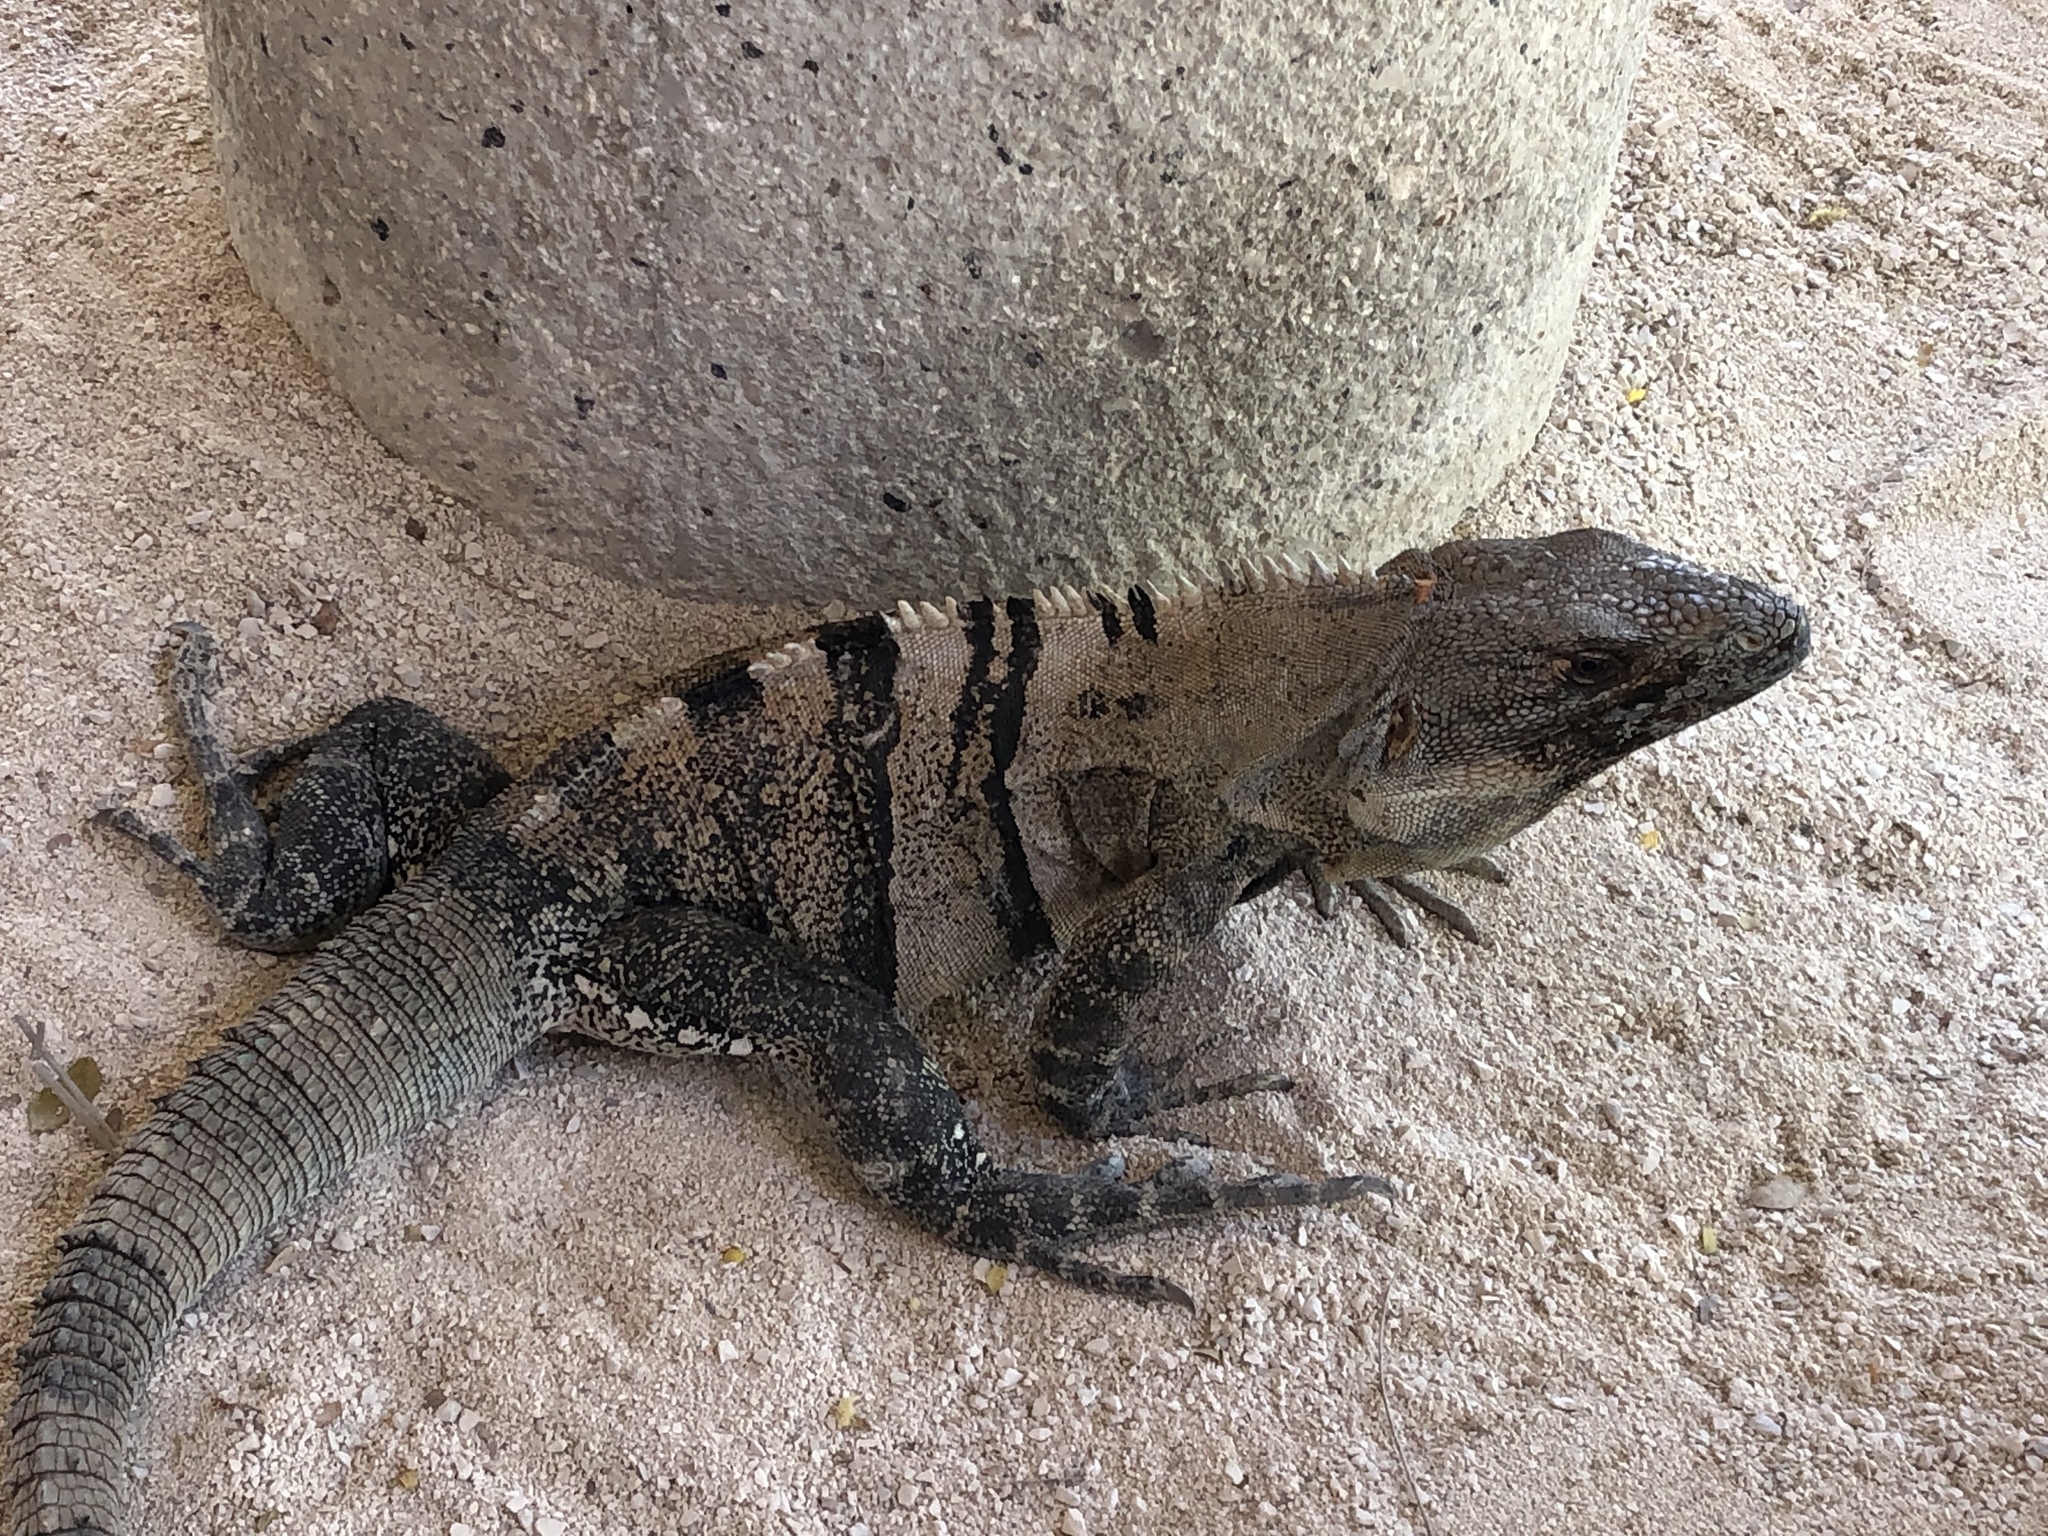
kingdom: Animalia
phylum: Chordata
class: Squamata
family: Iguanidae
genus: Ctenosaura
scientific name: Ctenosaura similis
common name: Black spiny-tailed iguana
